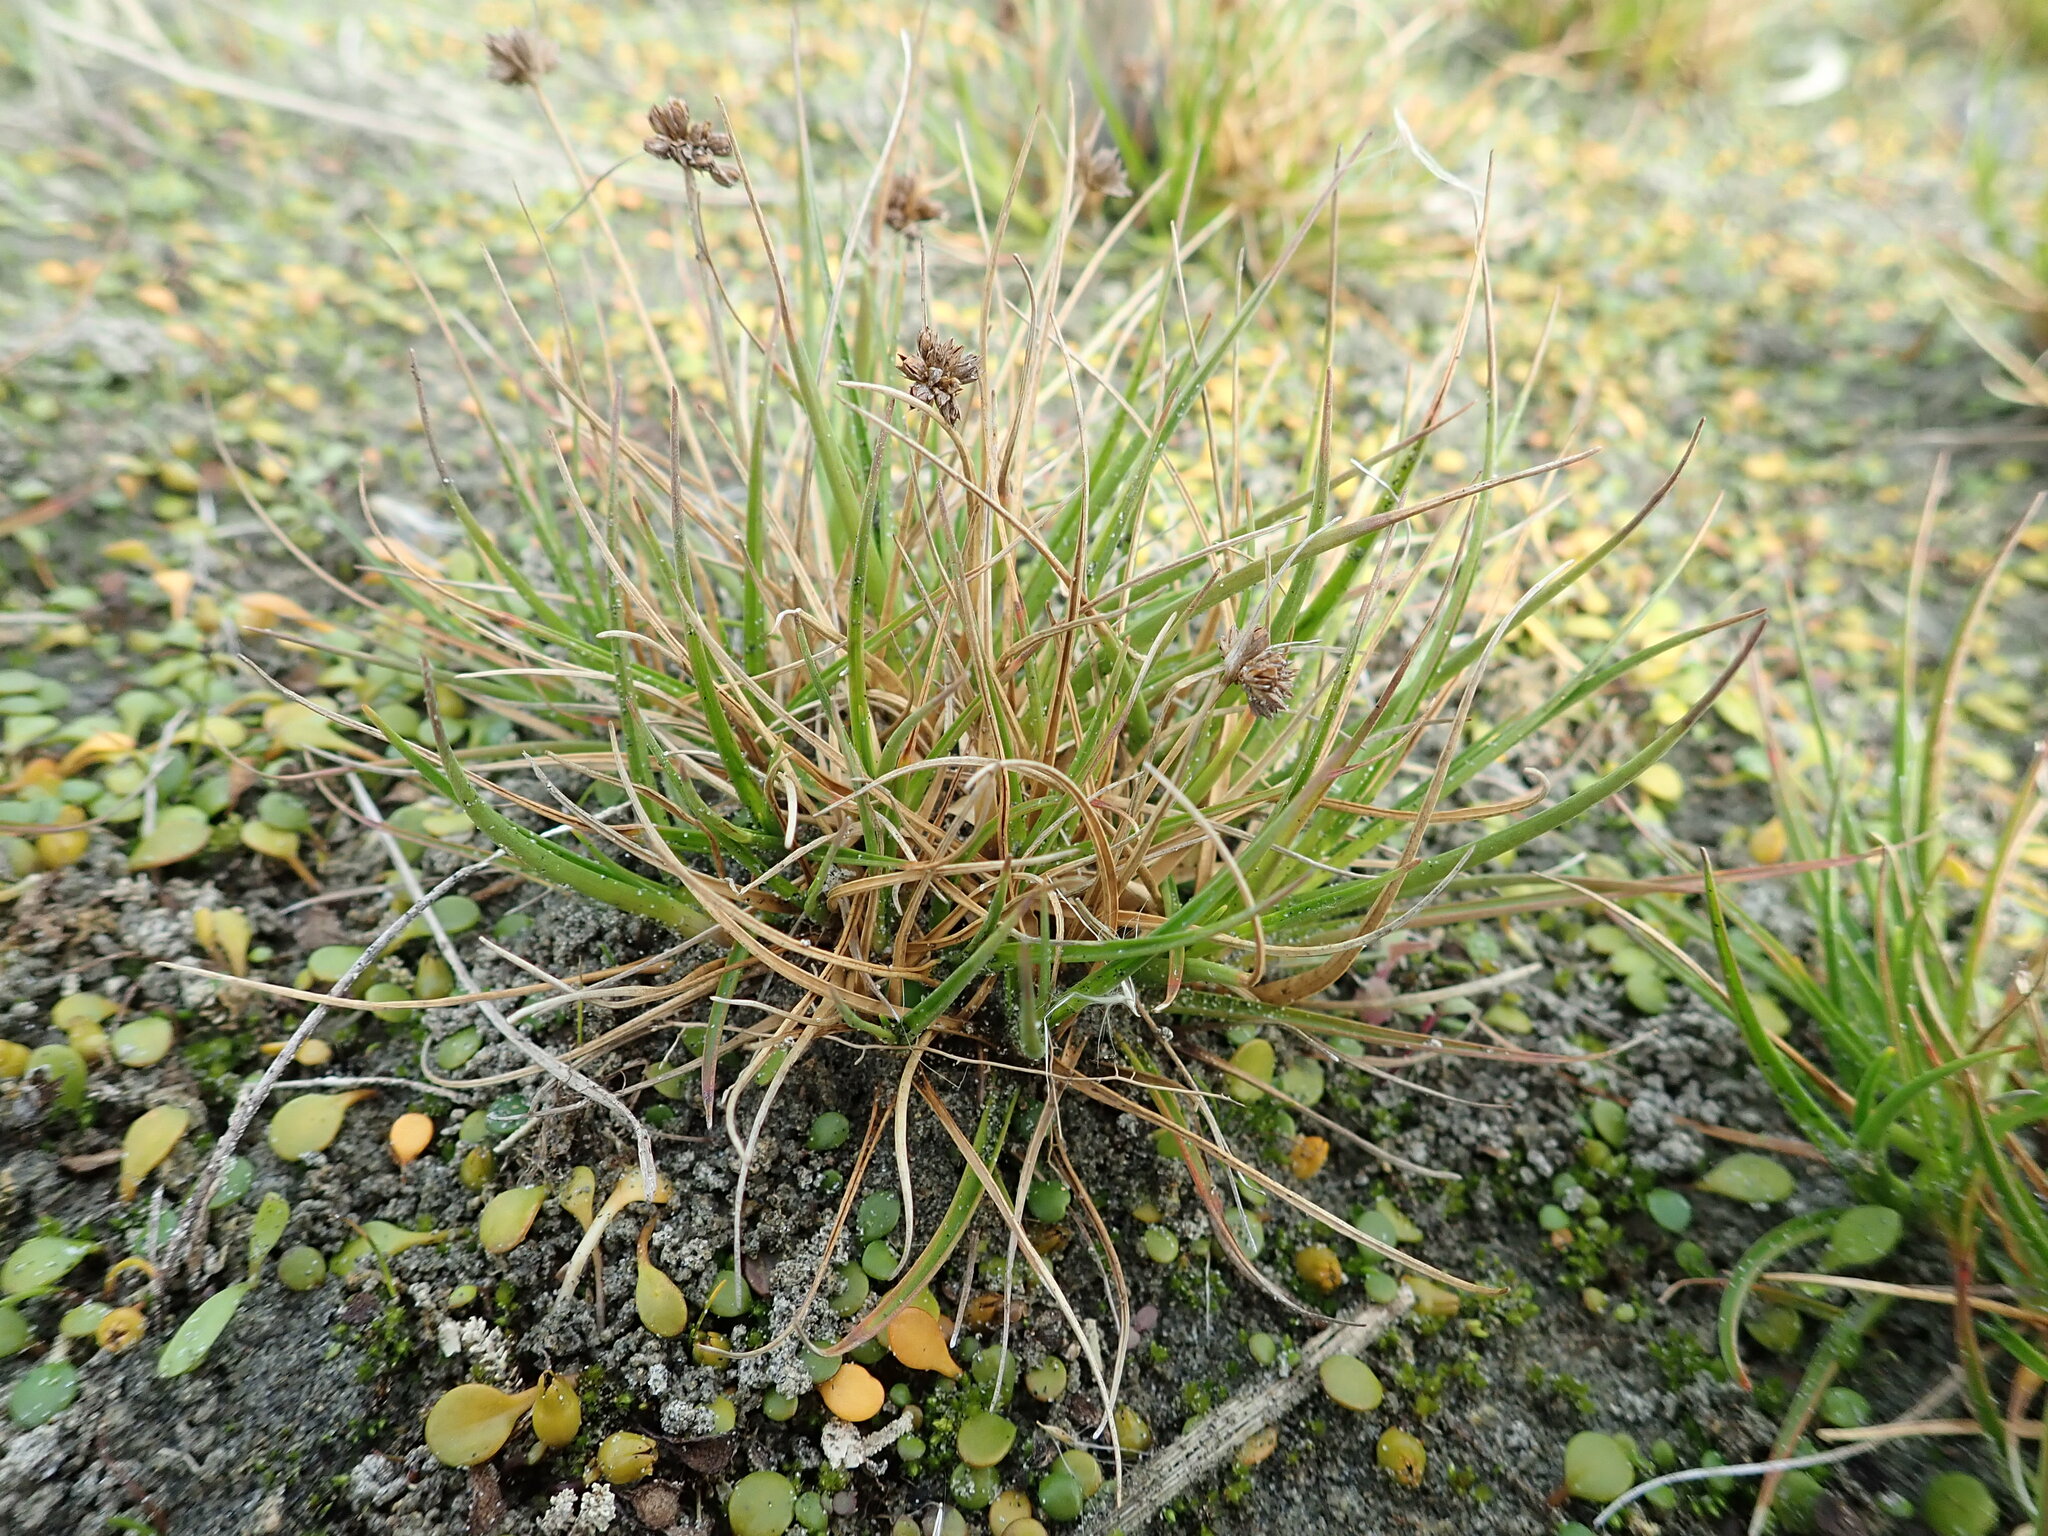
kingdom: Plantae
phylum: Tracheophyta
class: Liliopsida
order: Poales
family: Juncaceae
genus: Juncus
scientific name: Juncus caespiticius
